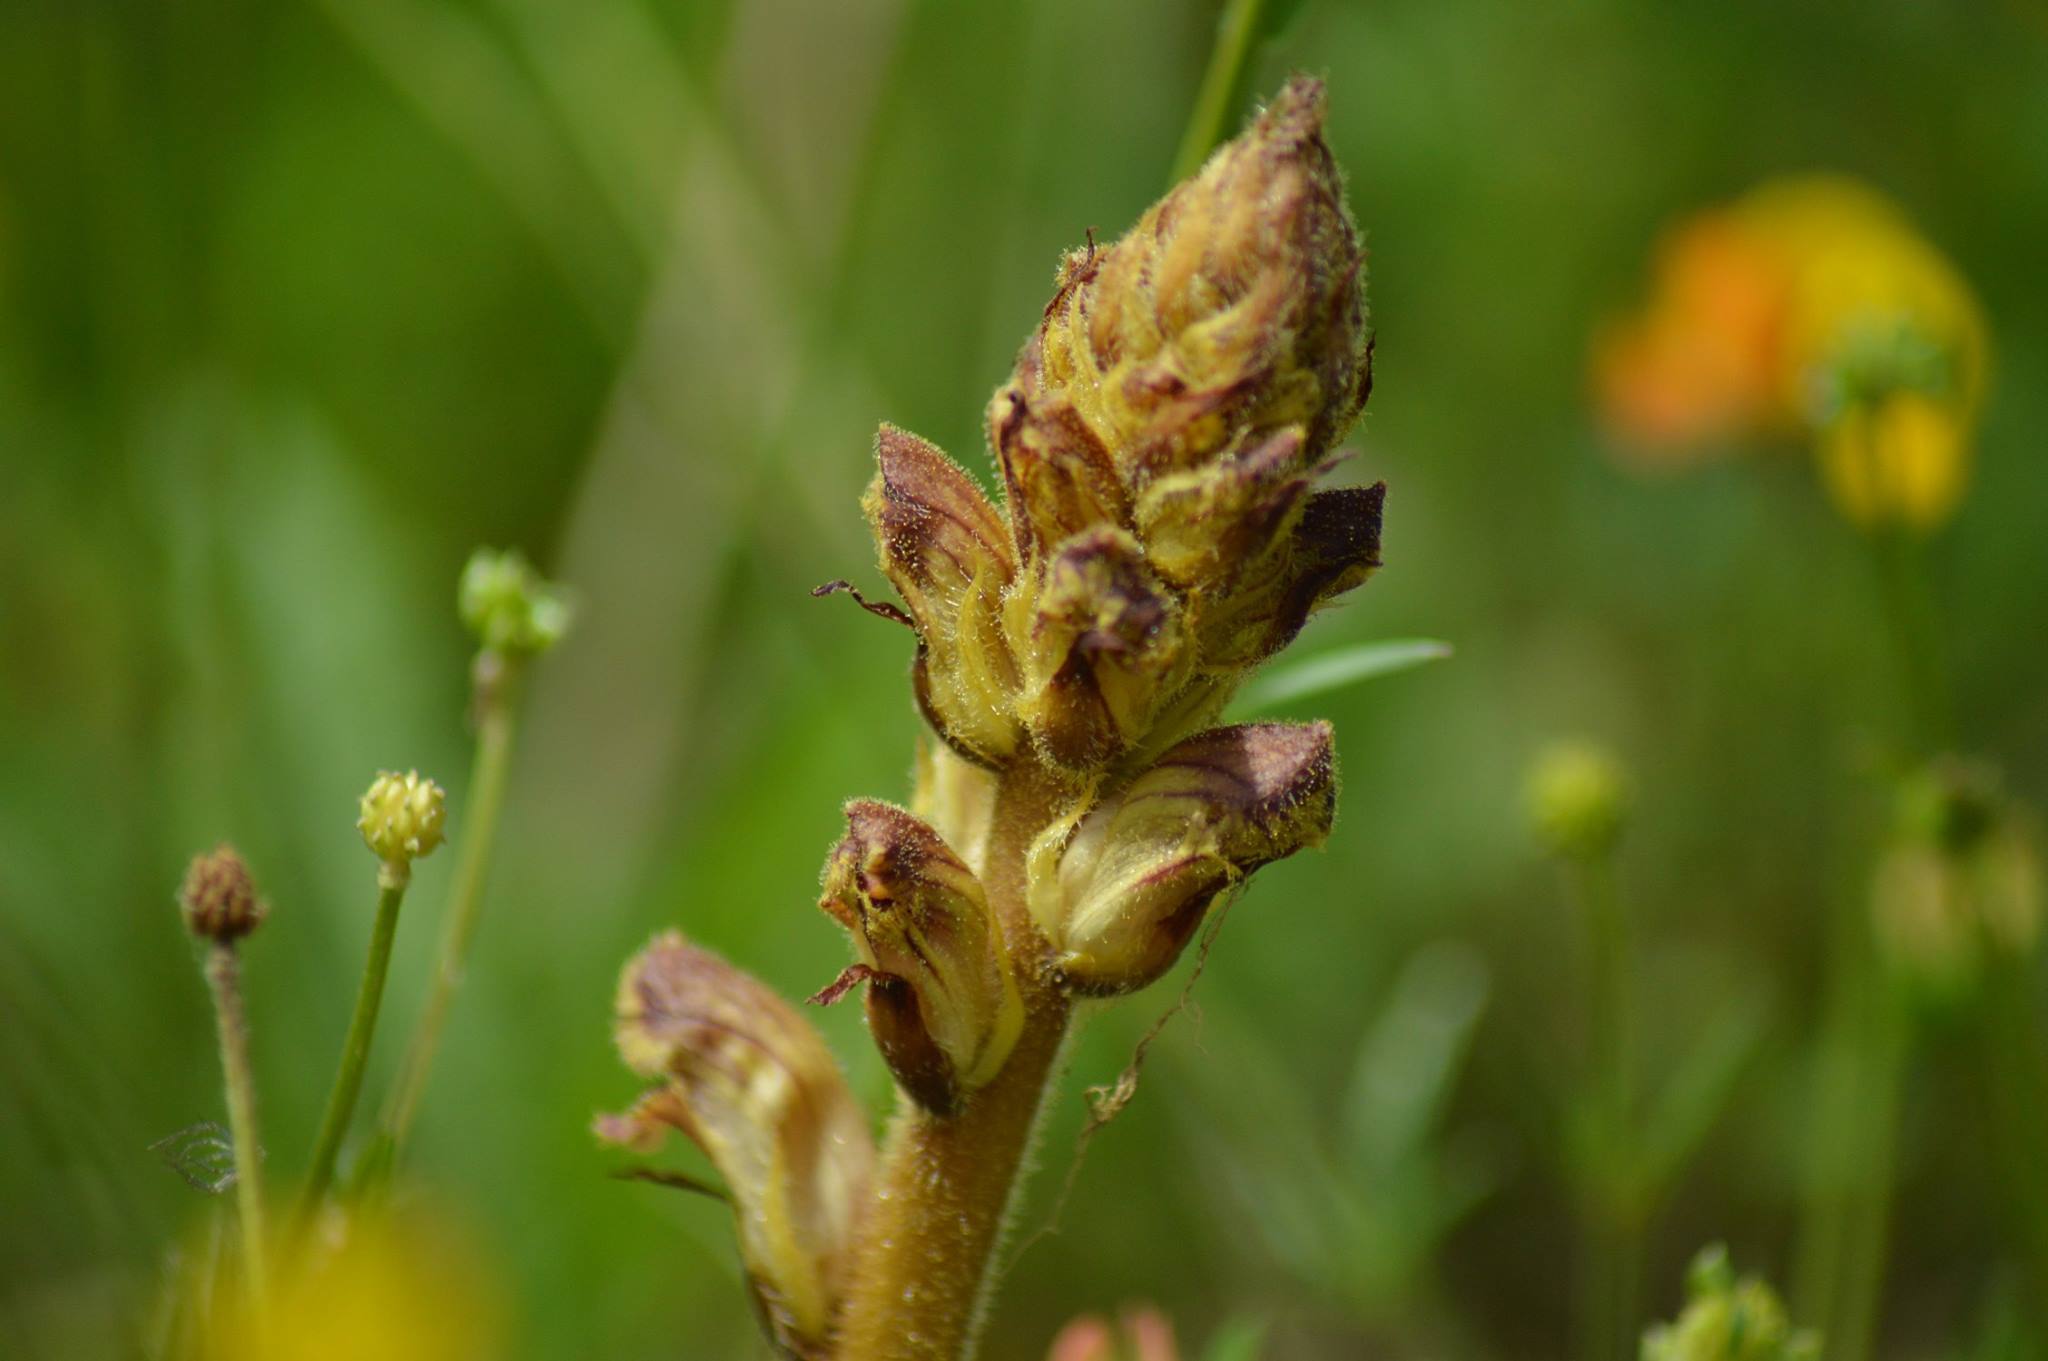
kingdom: Plantae
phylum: Tracheophyta
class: Magnoliopsida
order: Lamiales
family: Orobanchaceae
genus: Orobanche
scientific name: Orobanche gracilis
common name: Slender broomrape
